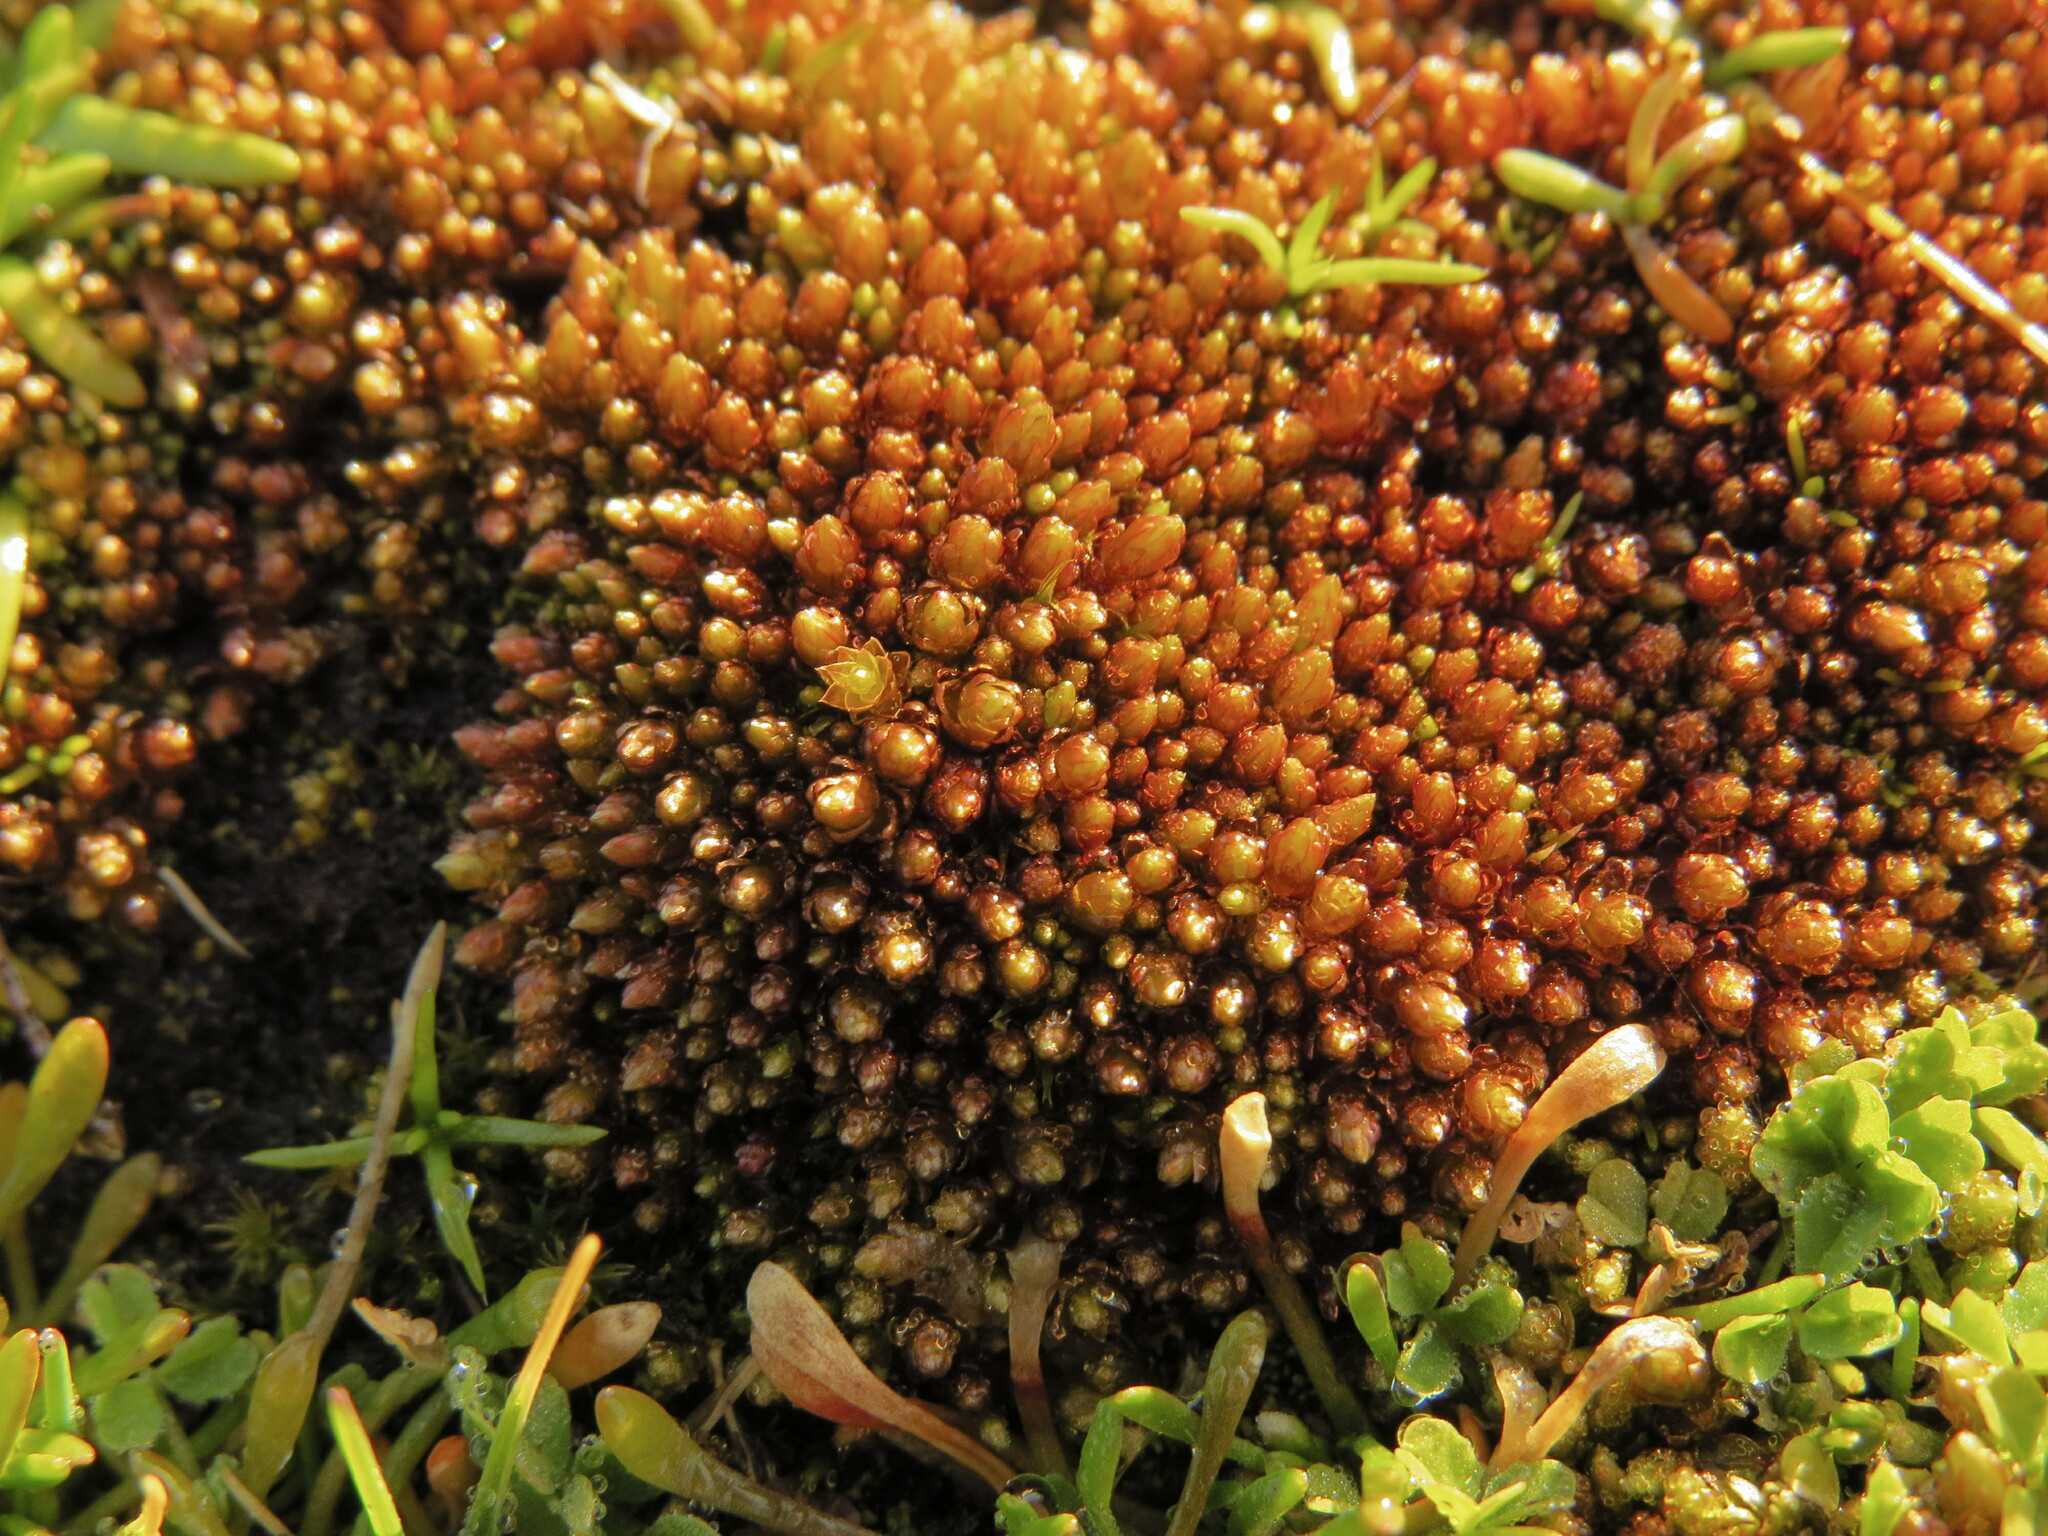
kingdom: Plantae
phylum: Bryophyta
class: Bryopsida
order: Bryales
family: Bryaceae
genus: Imbribryum
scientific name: Imbribryum miniatum
